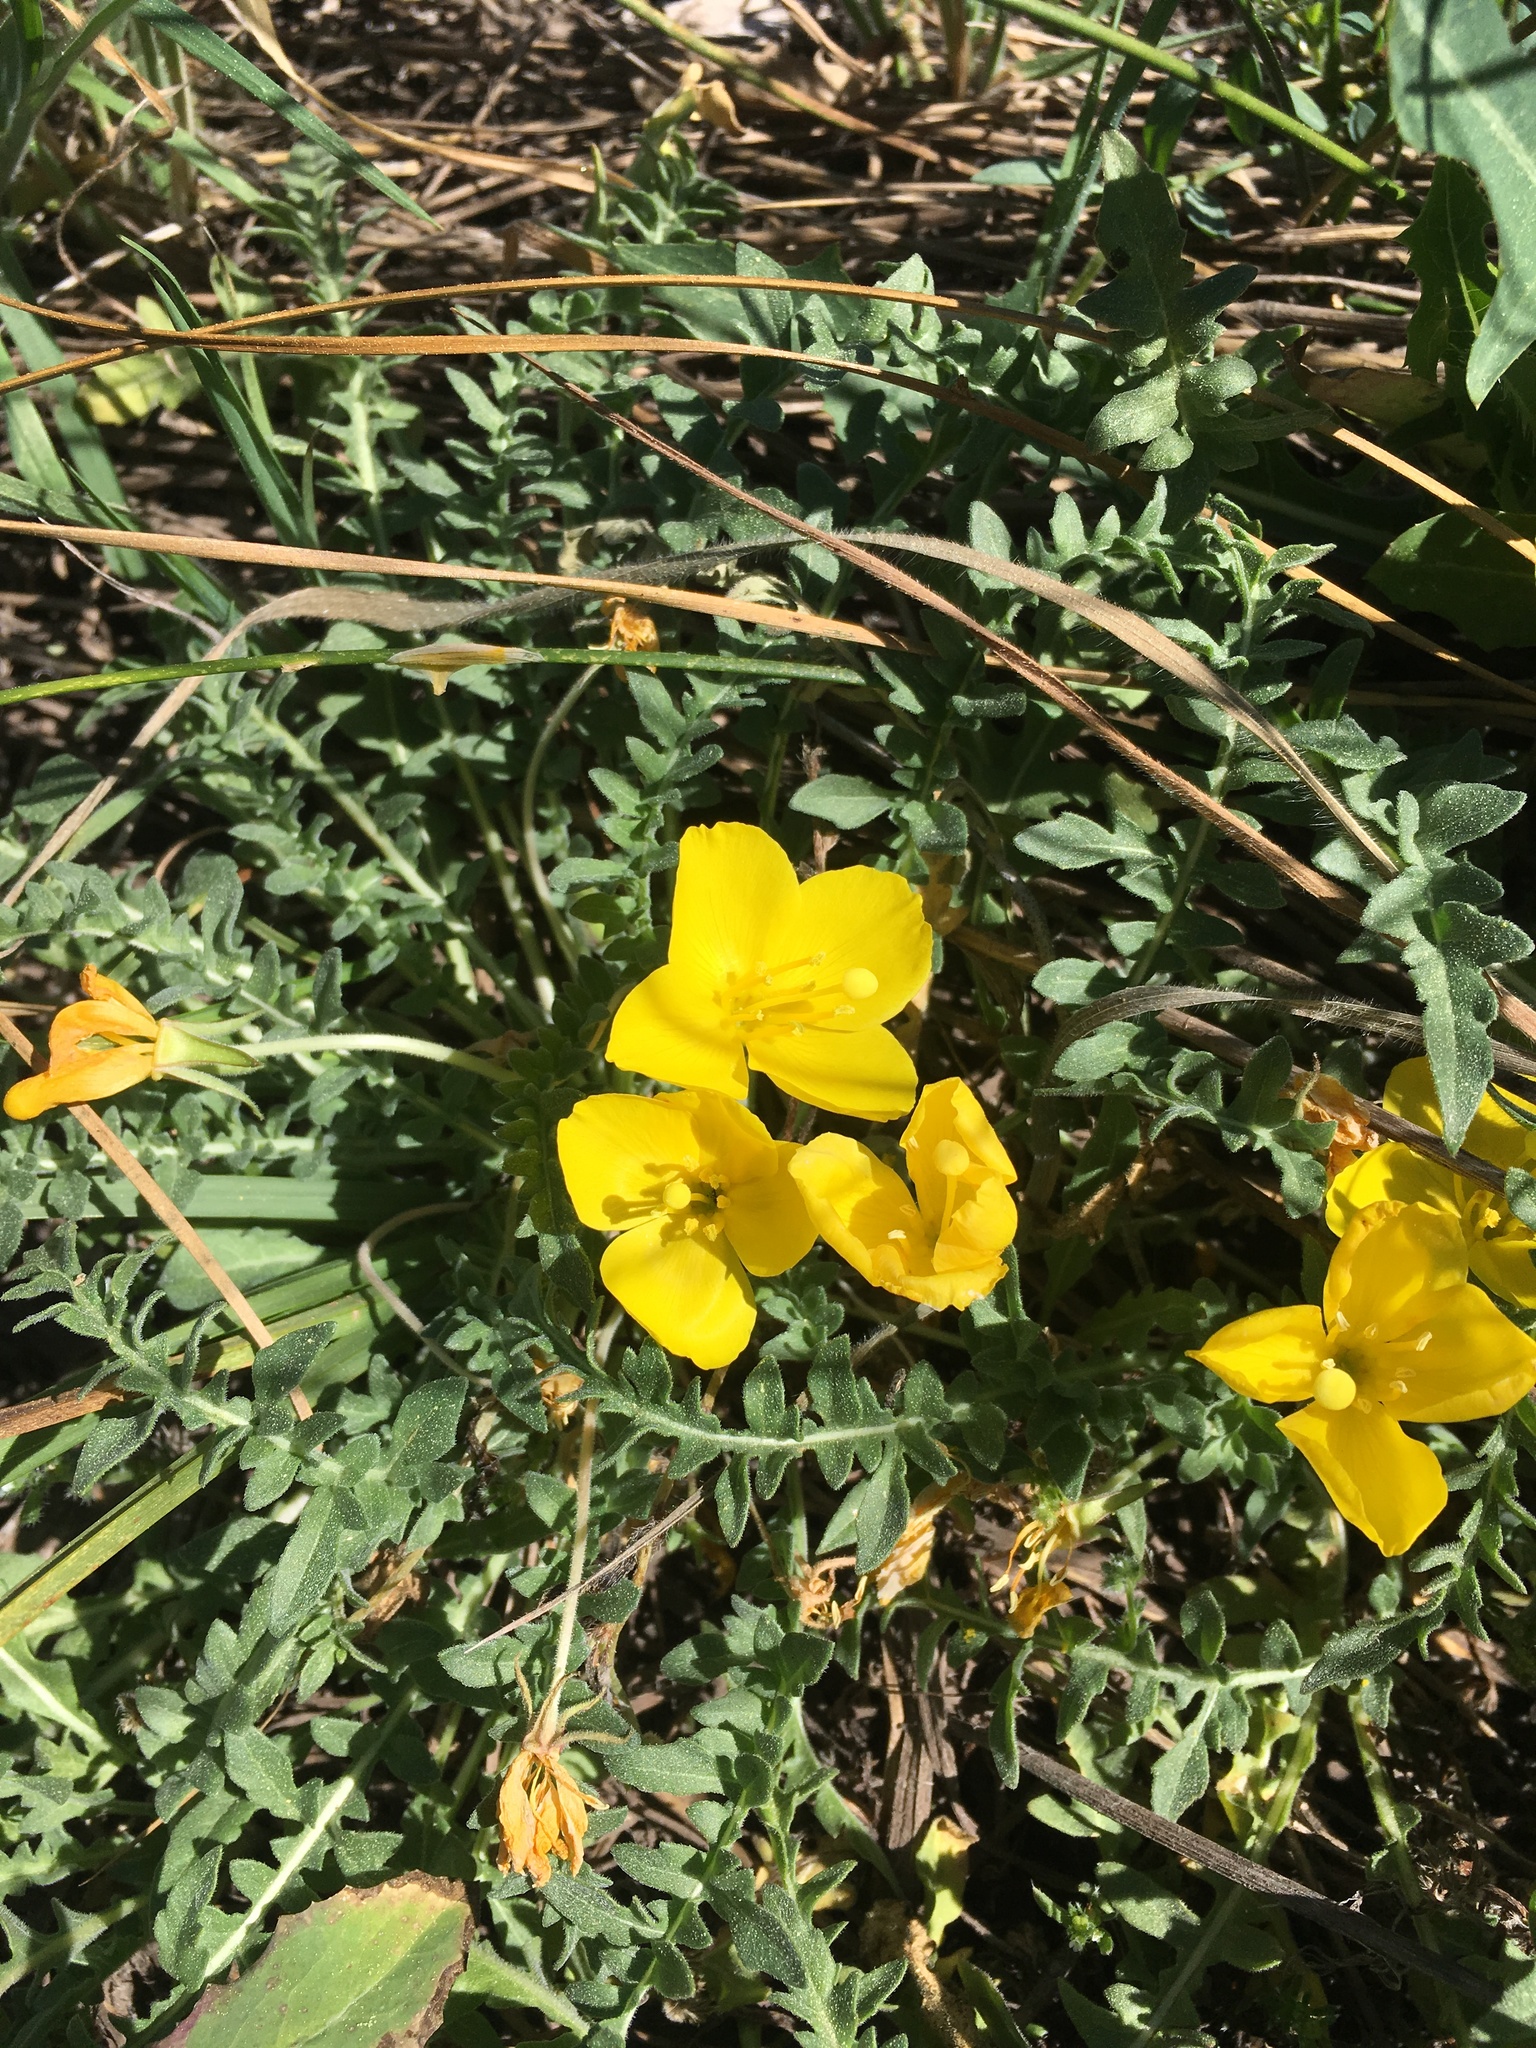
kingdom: Plantae
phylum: Tracheophyta
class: Magnoliopsida
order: Myrtales
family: Onagraceae
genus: Taraxia
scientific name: Taraxia tanacetifolia
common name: Tansyleaf evening primrose
